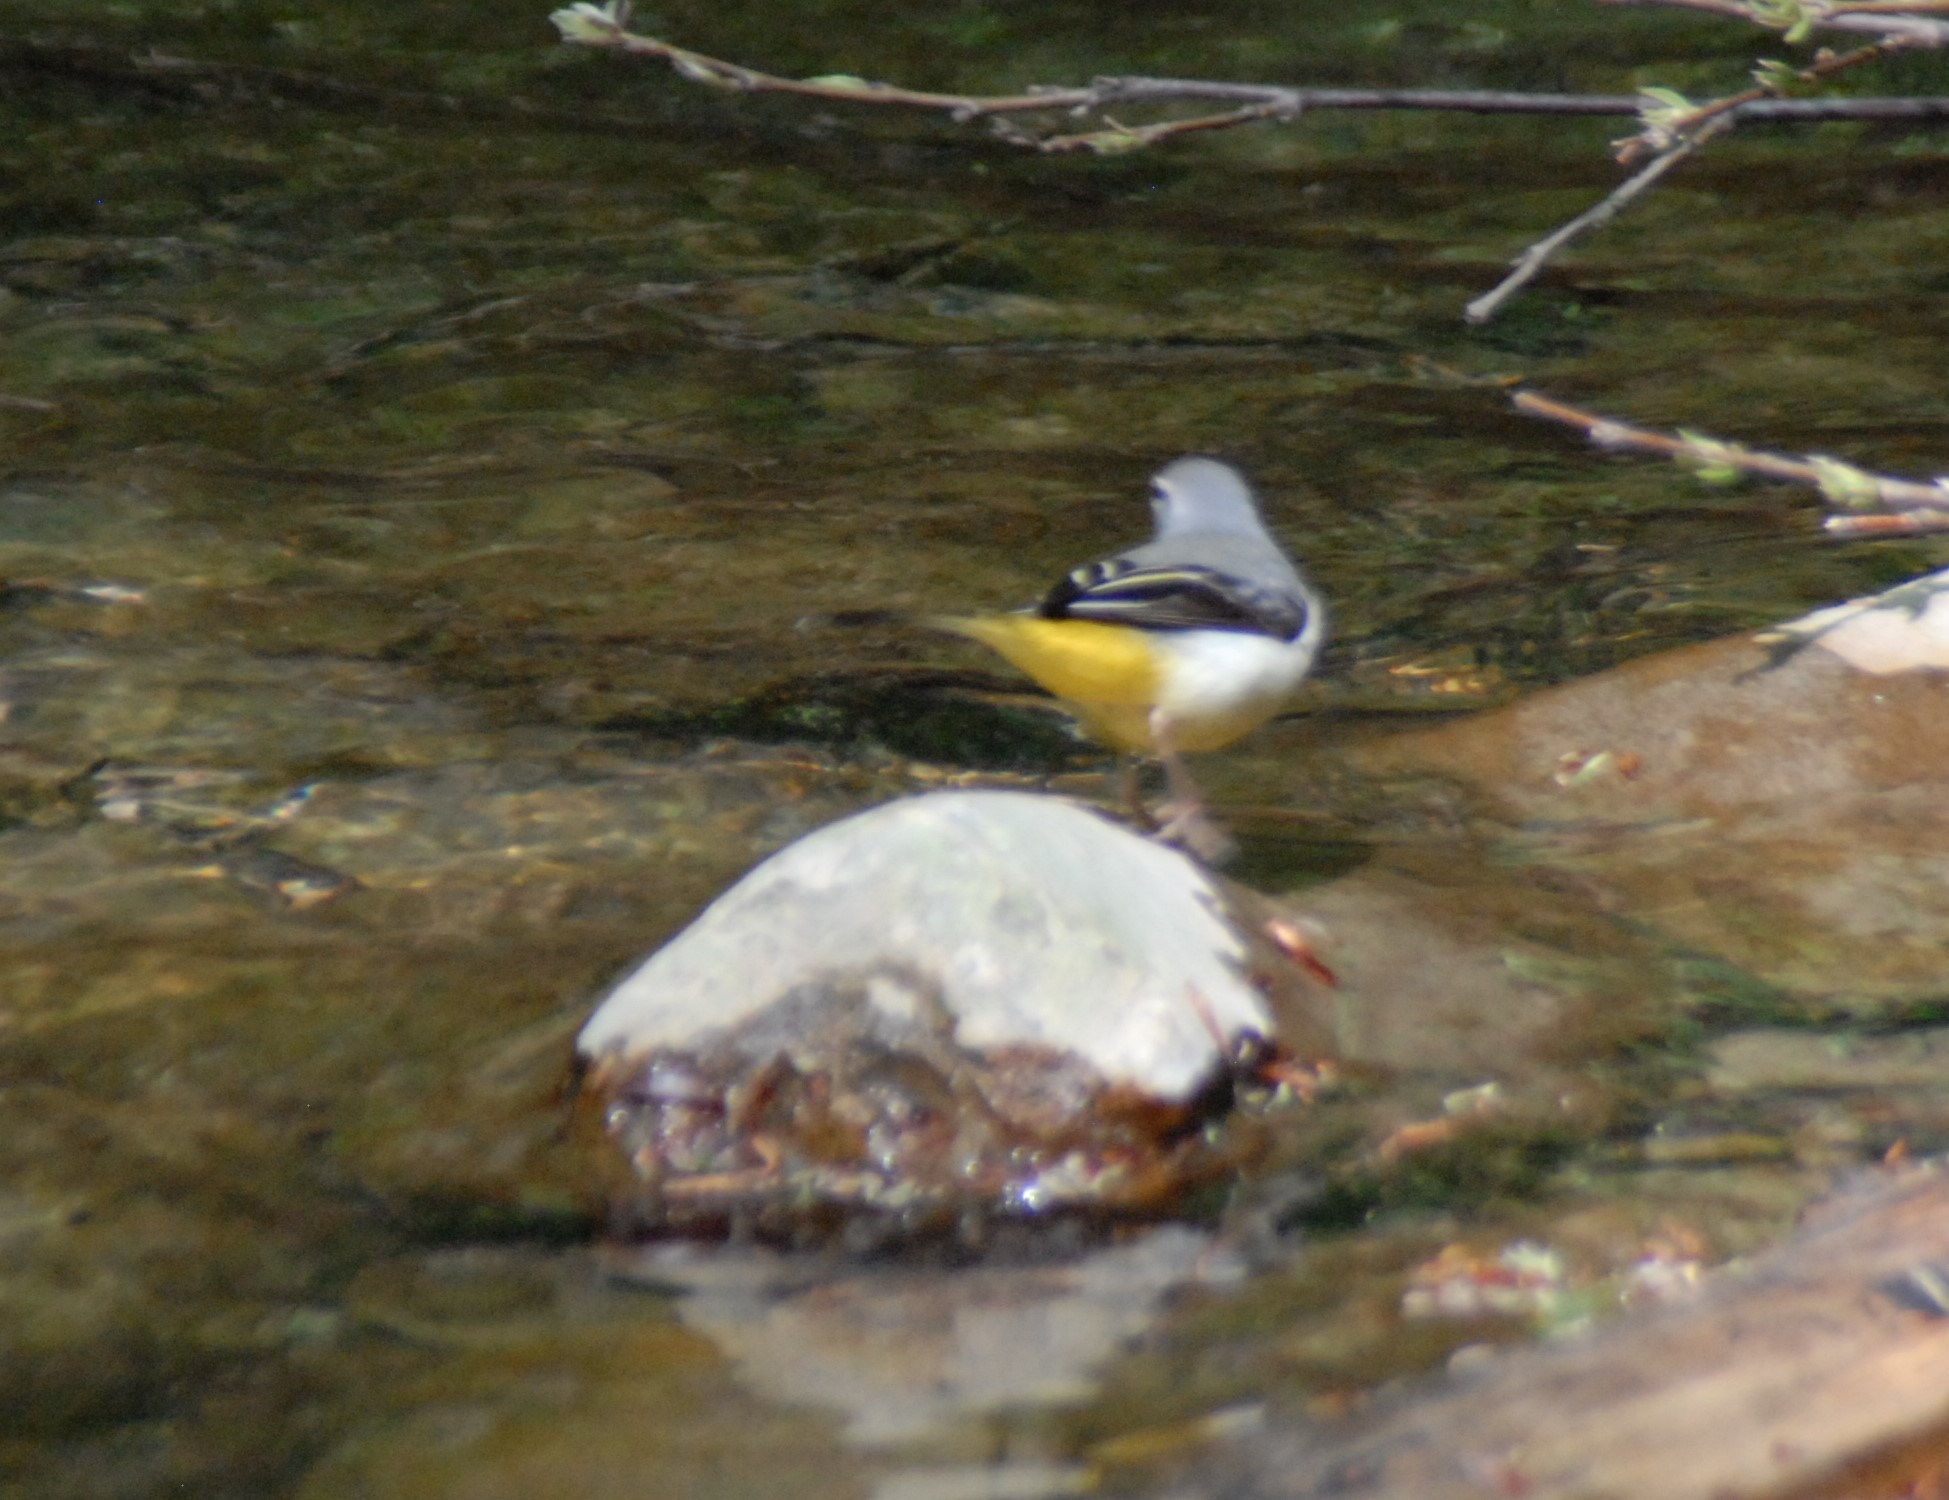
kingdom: Animalia
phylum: Chordata
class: Aves
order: Passeriformes
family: Motacillidae
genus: Motacilla
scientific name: Motacilla cinerea
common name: Grey wagtail
